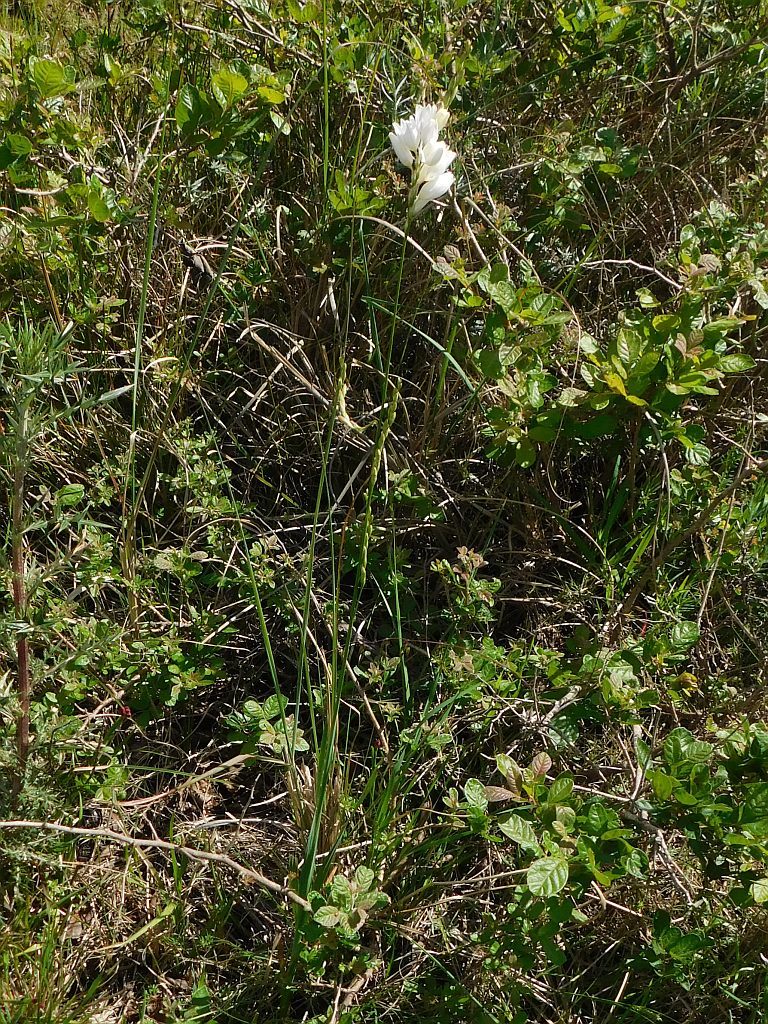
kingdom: Plantae
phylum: Tracheophyta
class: Liliopsida
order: Asparagales
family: Iridaceae
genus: Ixia
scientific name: Ixia polystachya
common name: White-and-yellow-flower cornlily
